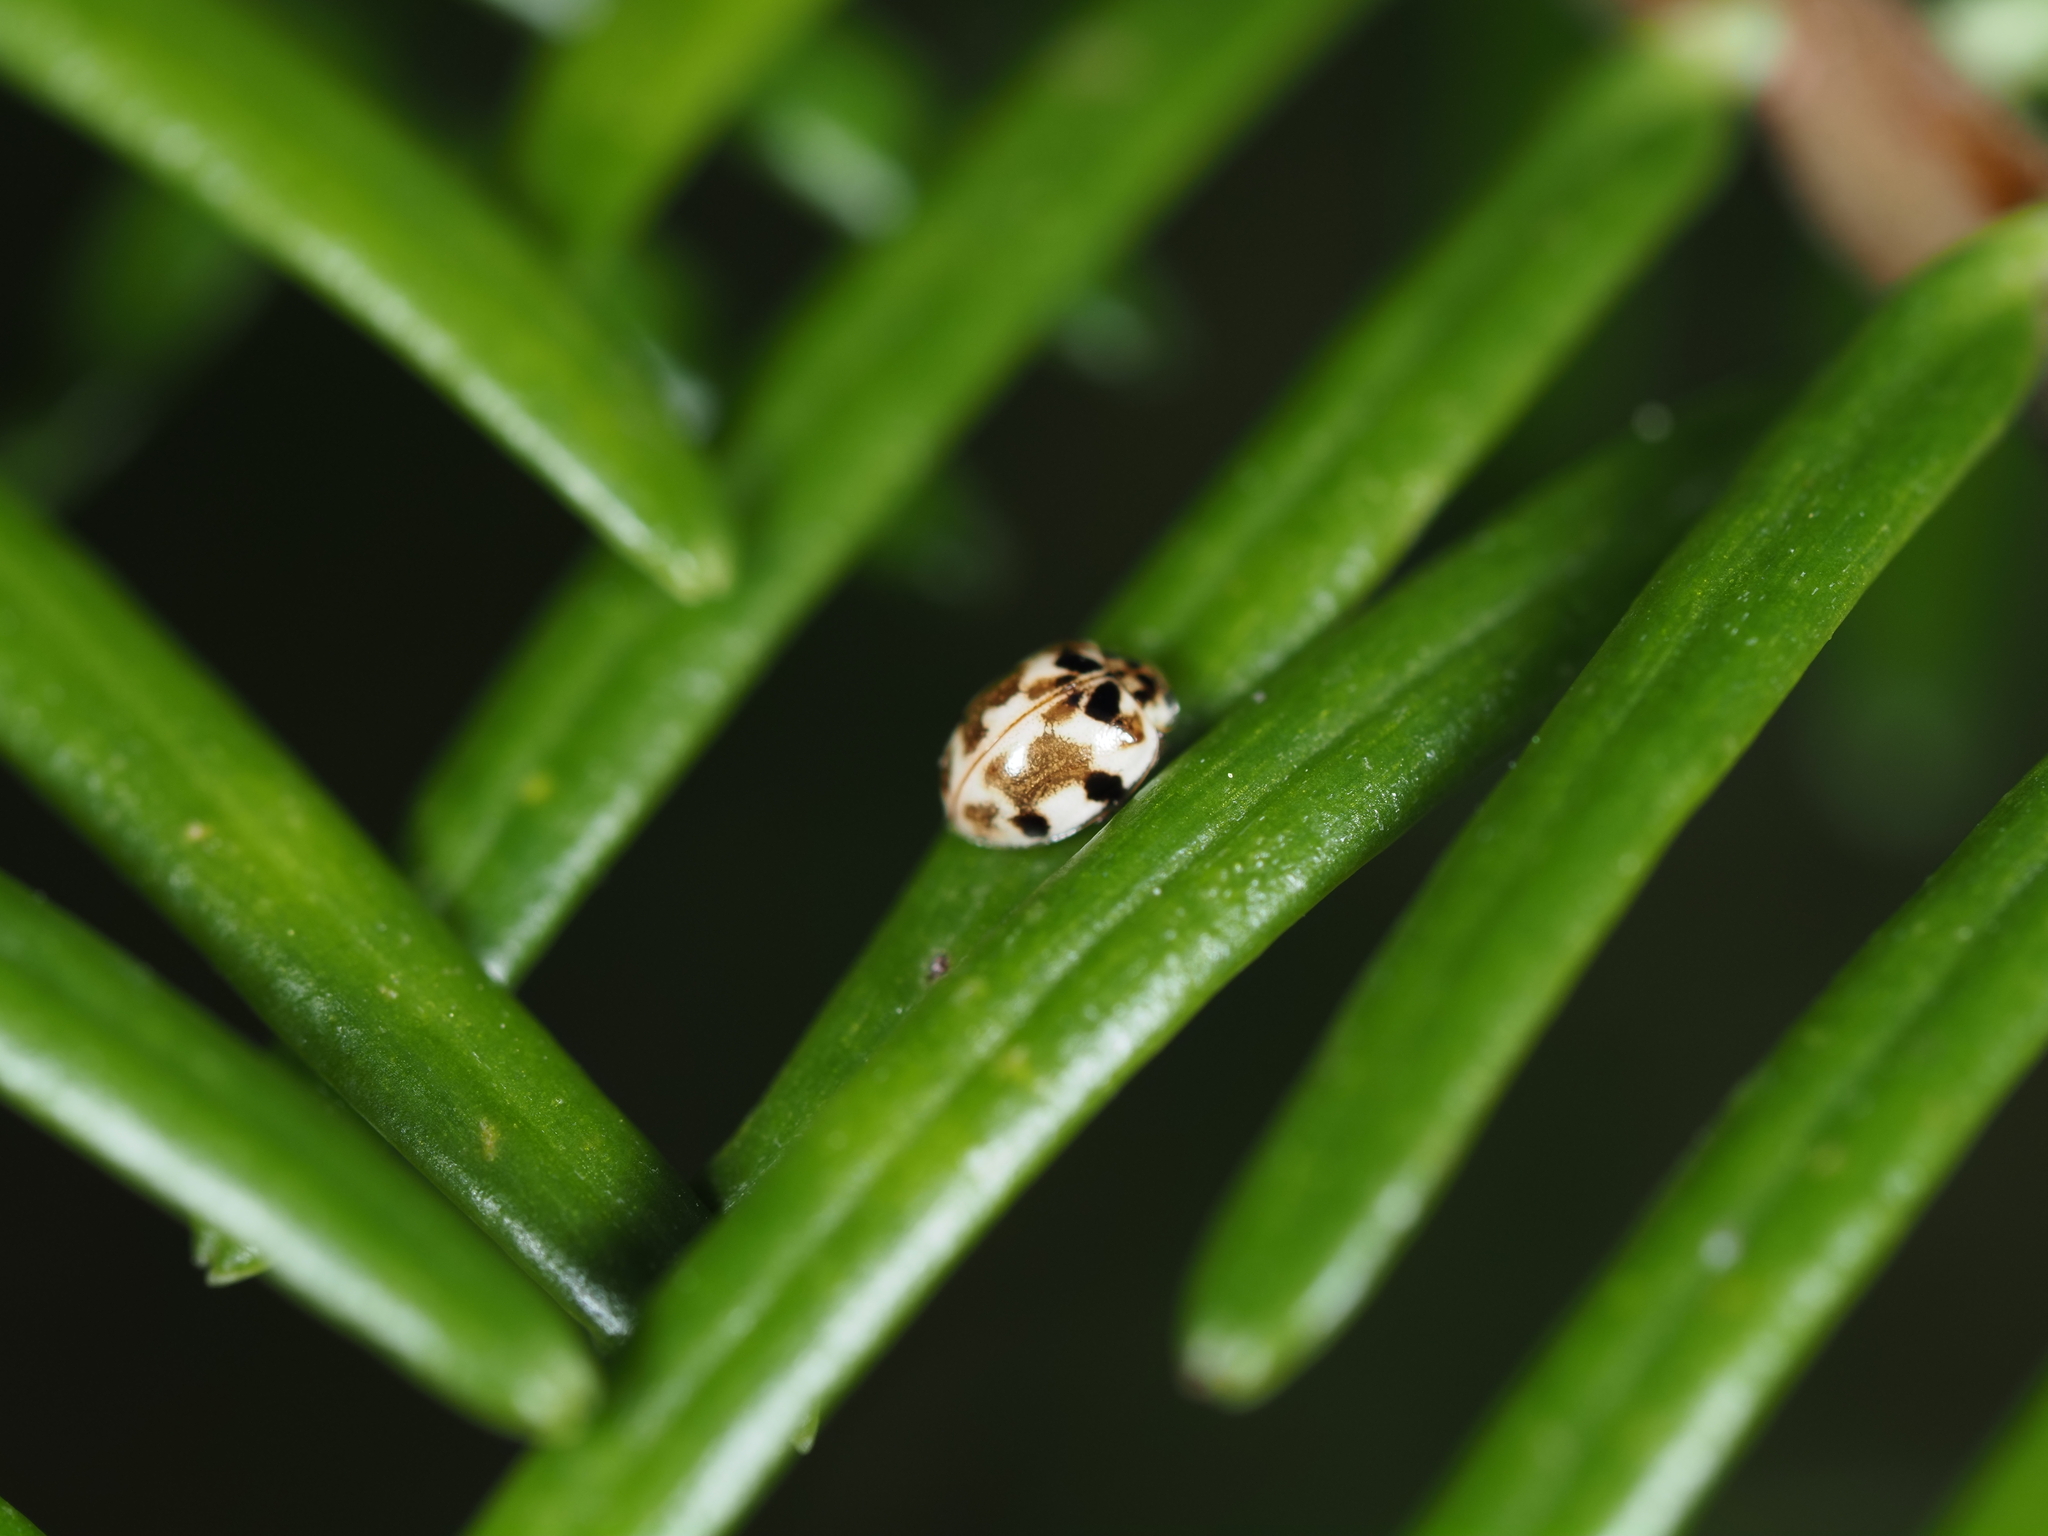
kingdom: Animalia
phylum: Arthropoda
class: Insecta
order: Coleoptera
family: Coccinellidae
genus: Psyllobora
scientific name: Psyllobora borealis
